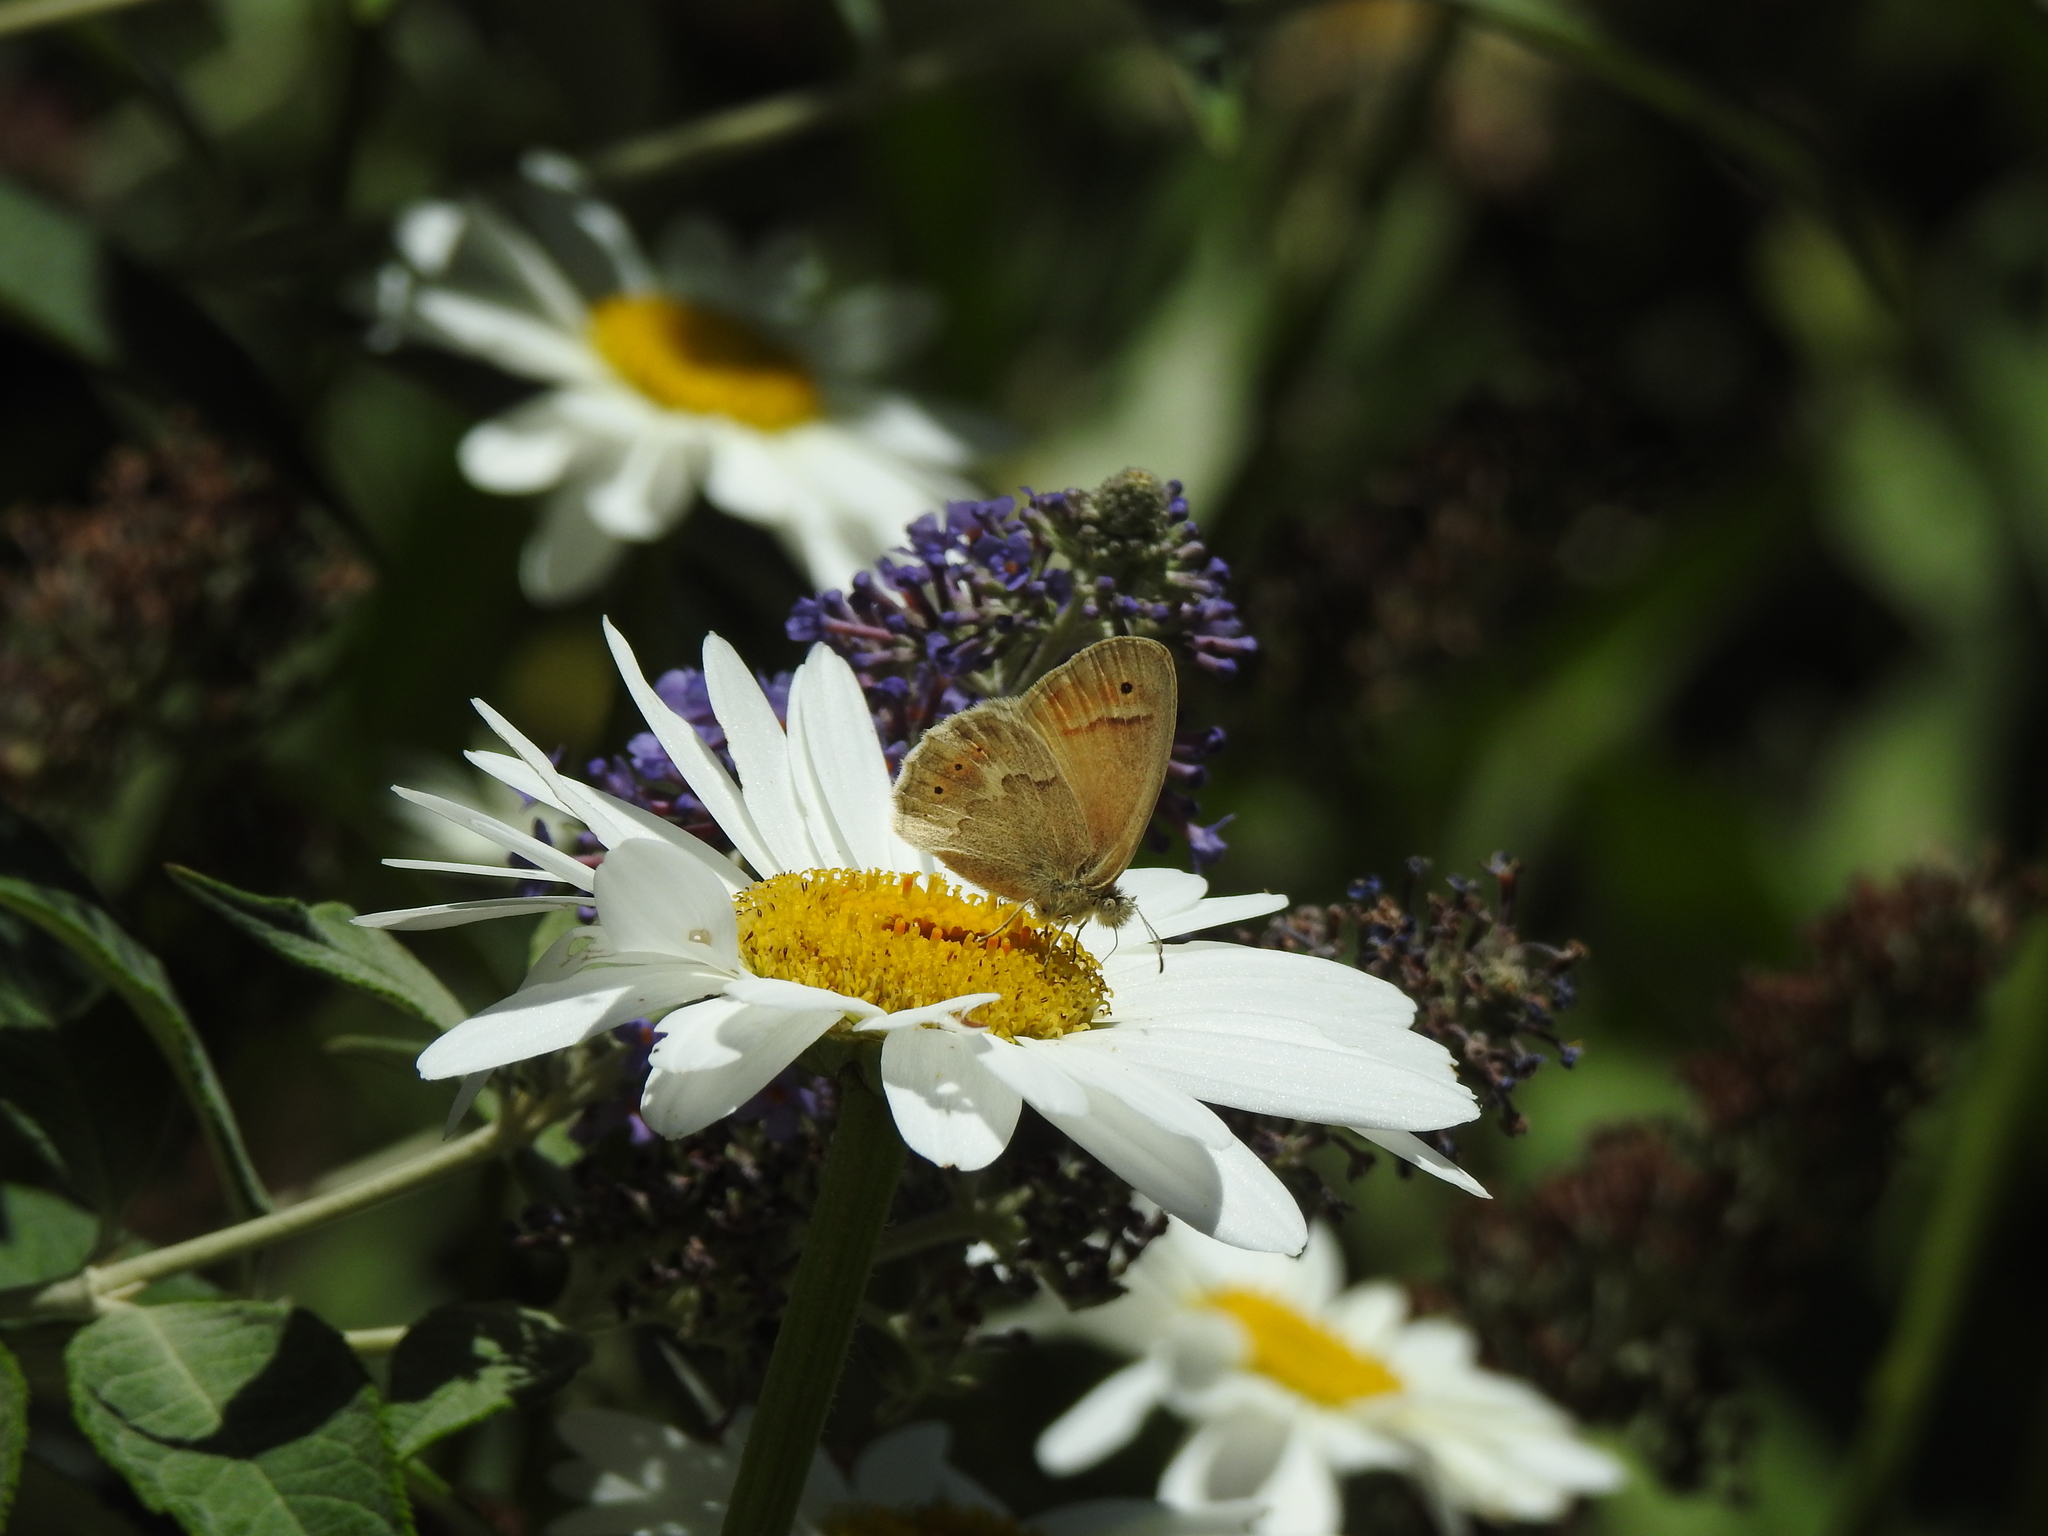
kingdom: Animalia
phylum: Arthropoda
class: Insecta
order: Lepidoptera
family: Nymphalidae
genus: Coenonympha
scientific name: Coenonympha california
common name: Common ringlet
